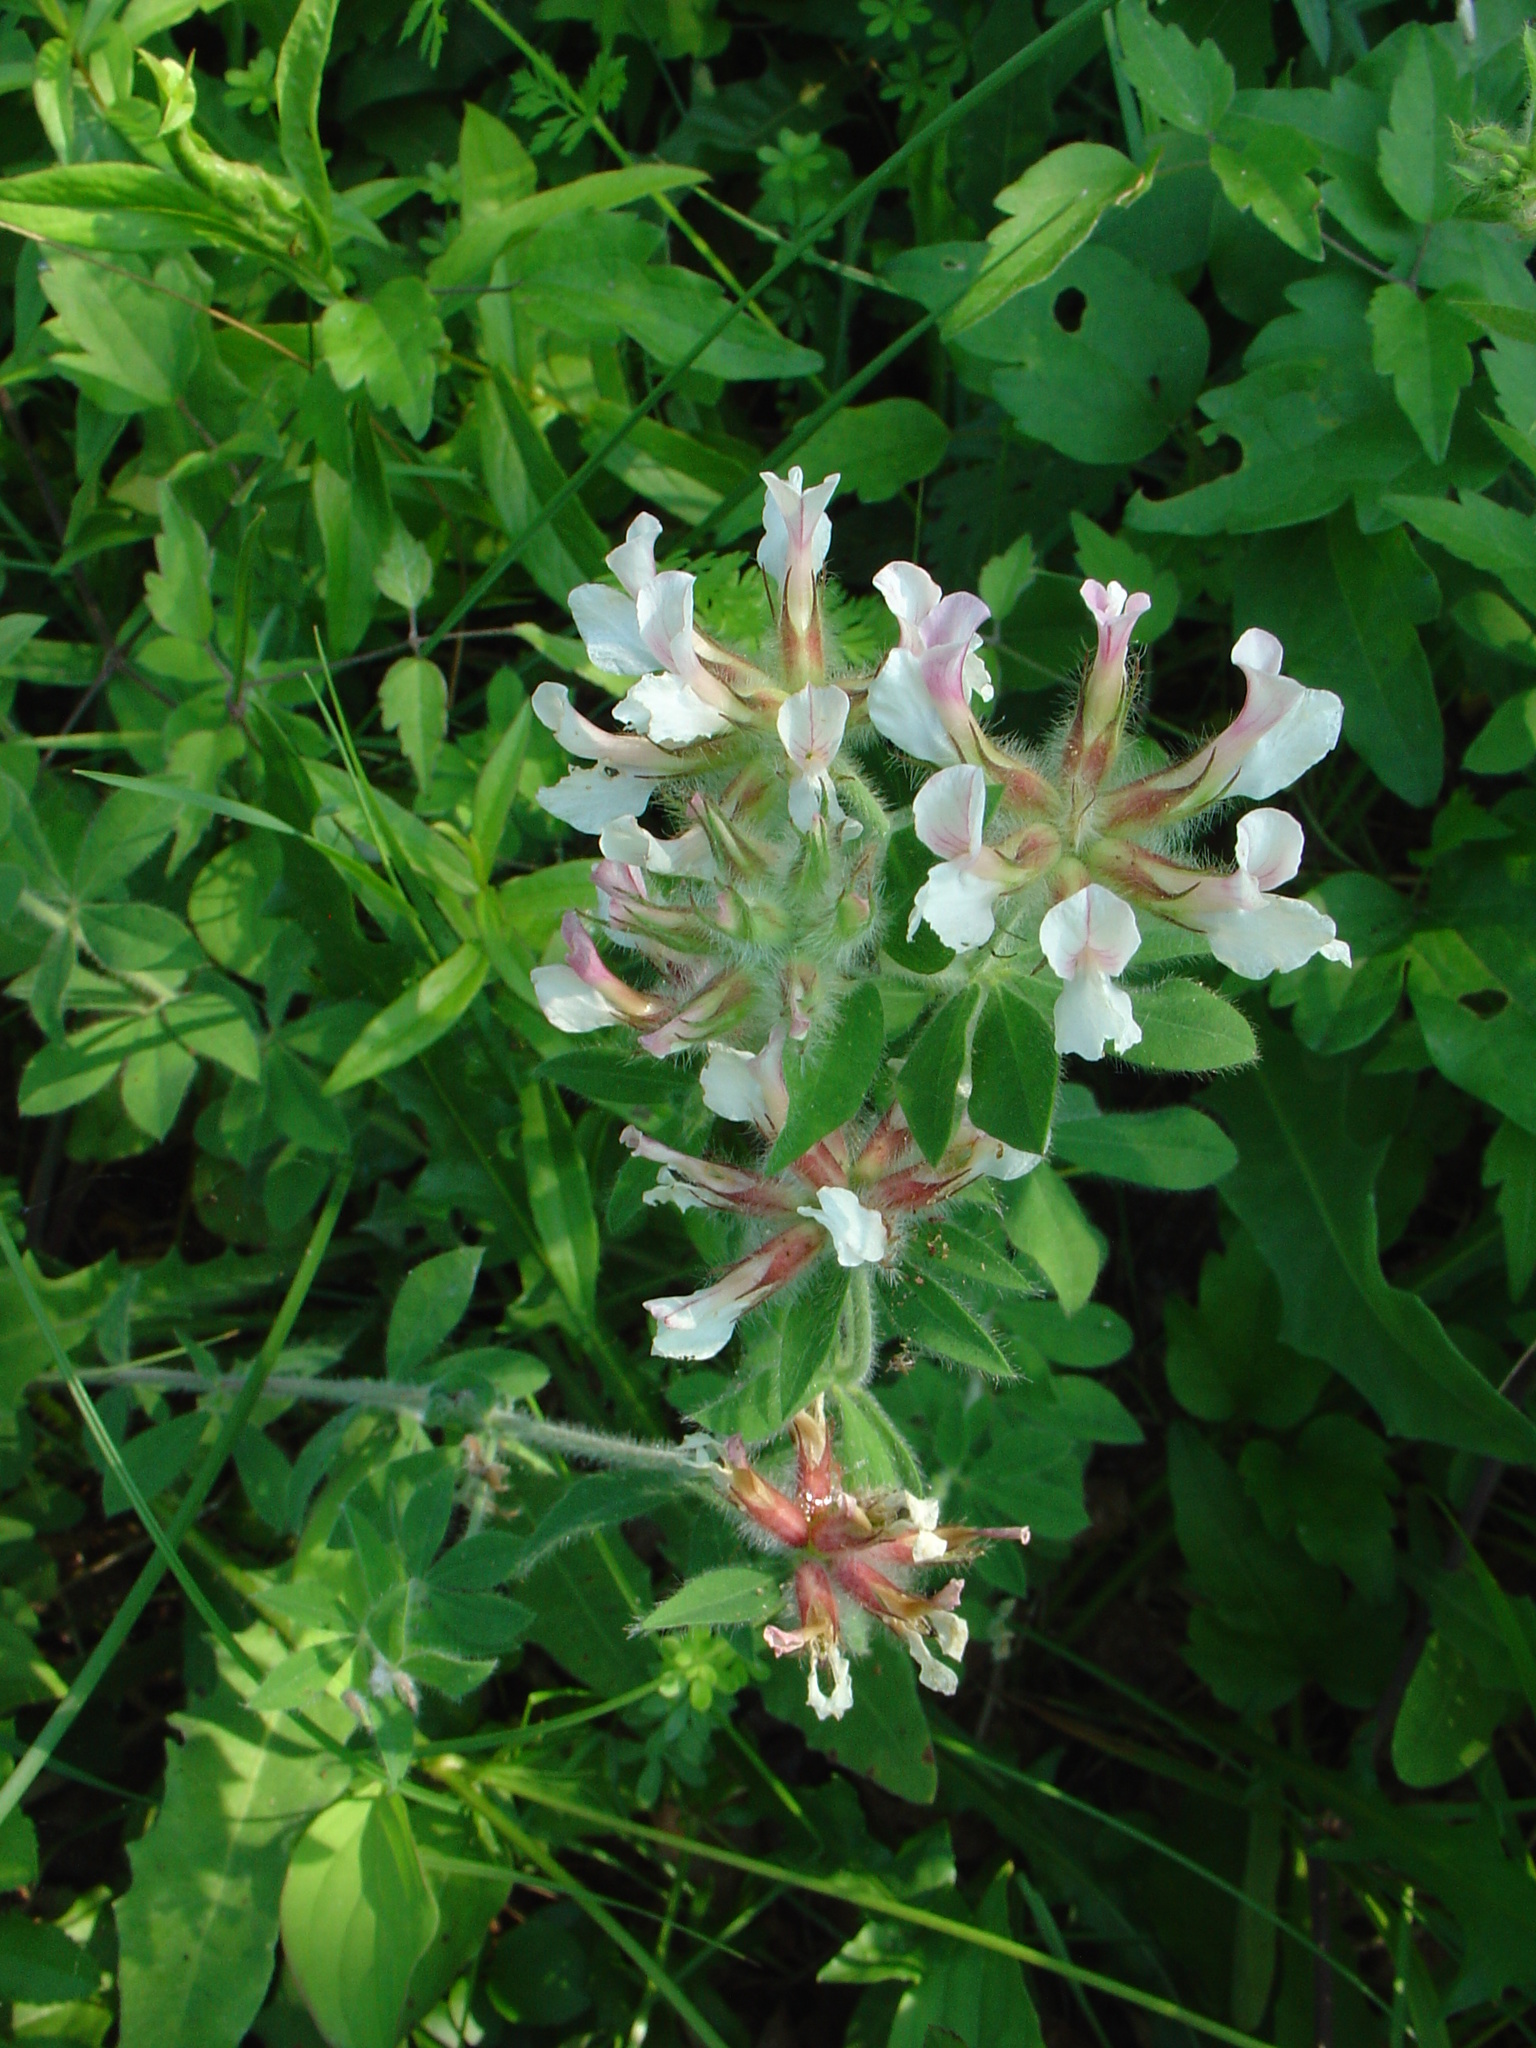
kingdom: Plantae
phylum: Tracheophyta
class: Magnoliopsida
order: Fabales
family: Fabaceae
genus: Lotus
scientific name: Lotus hirsutus
